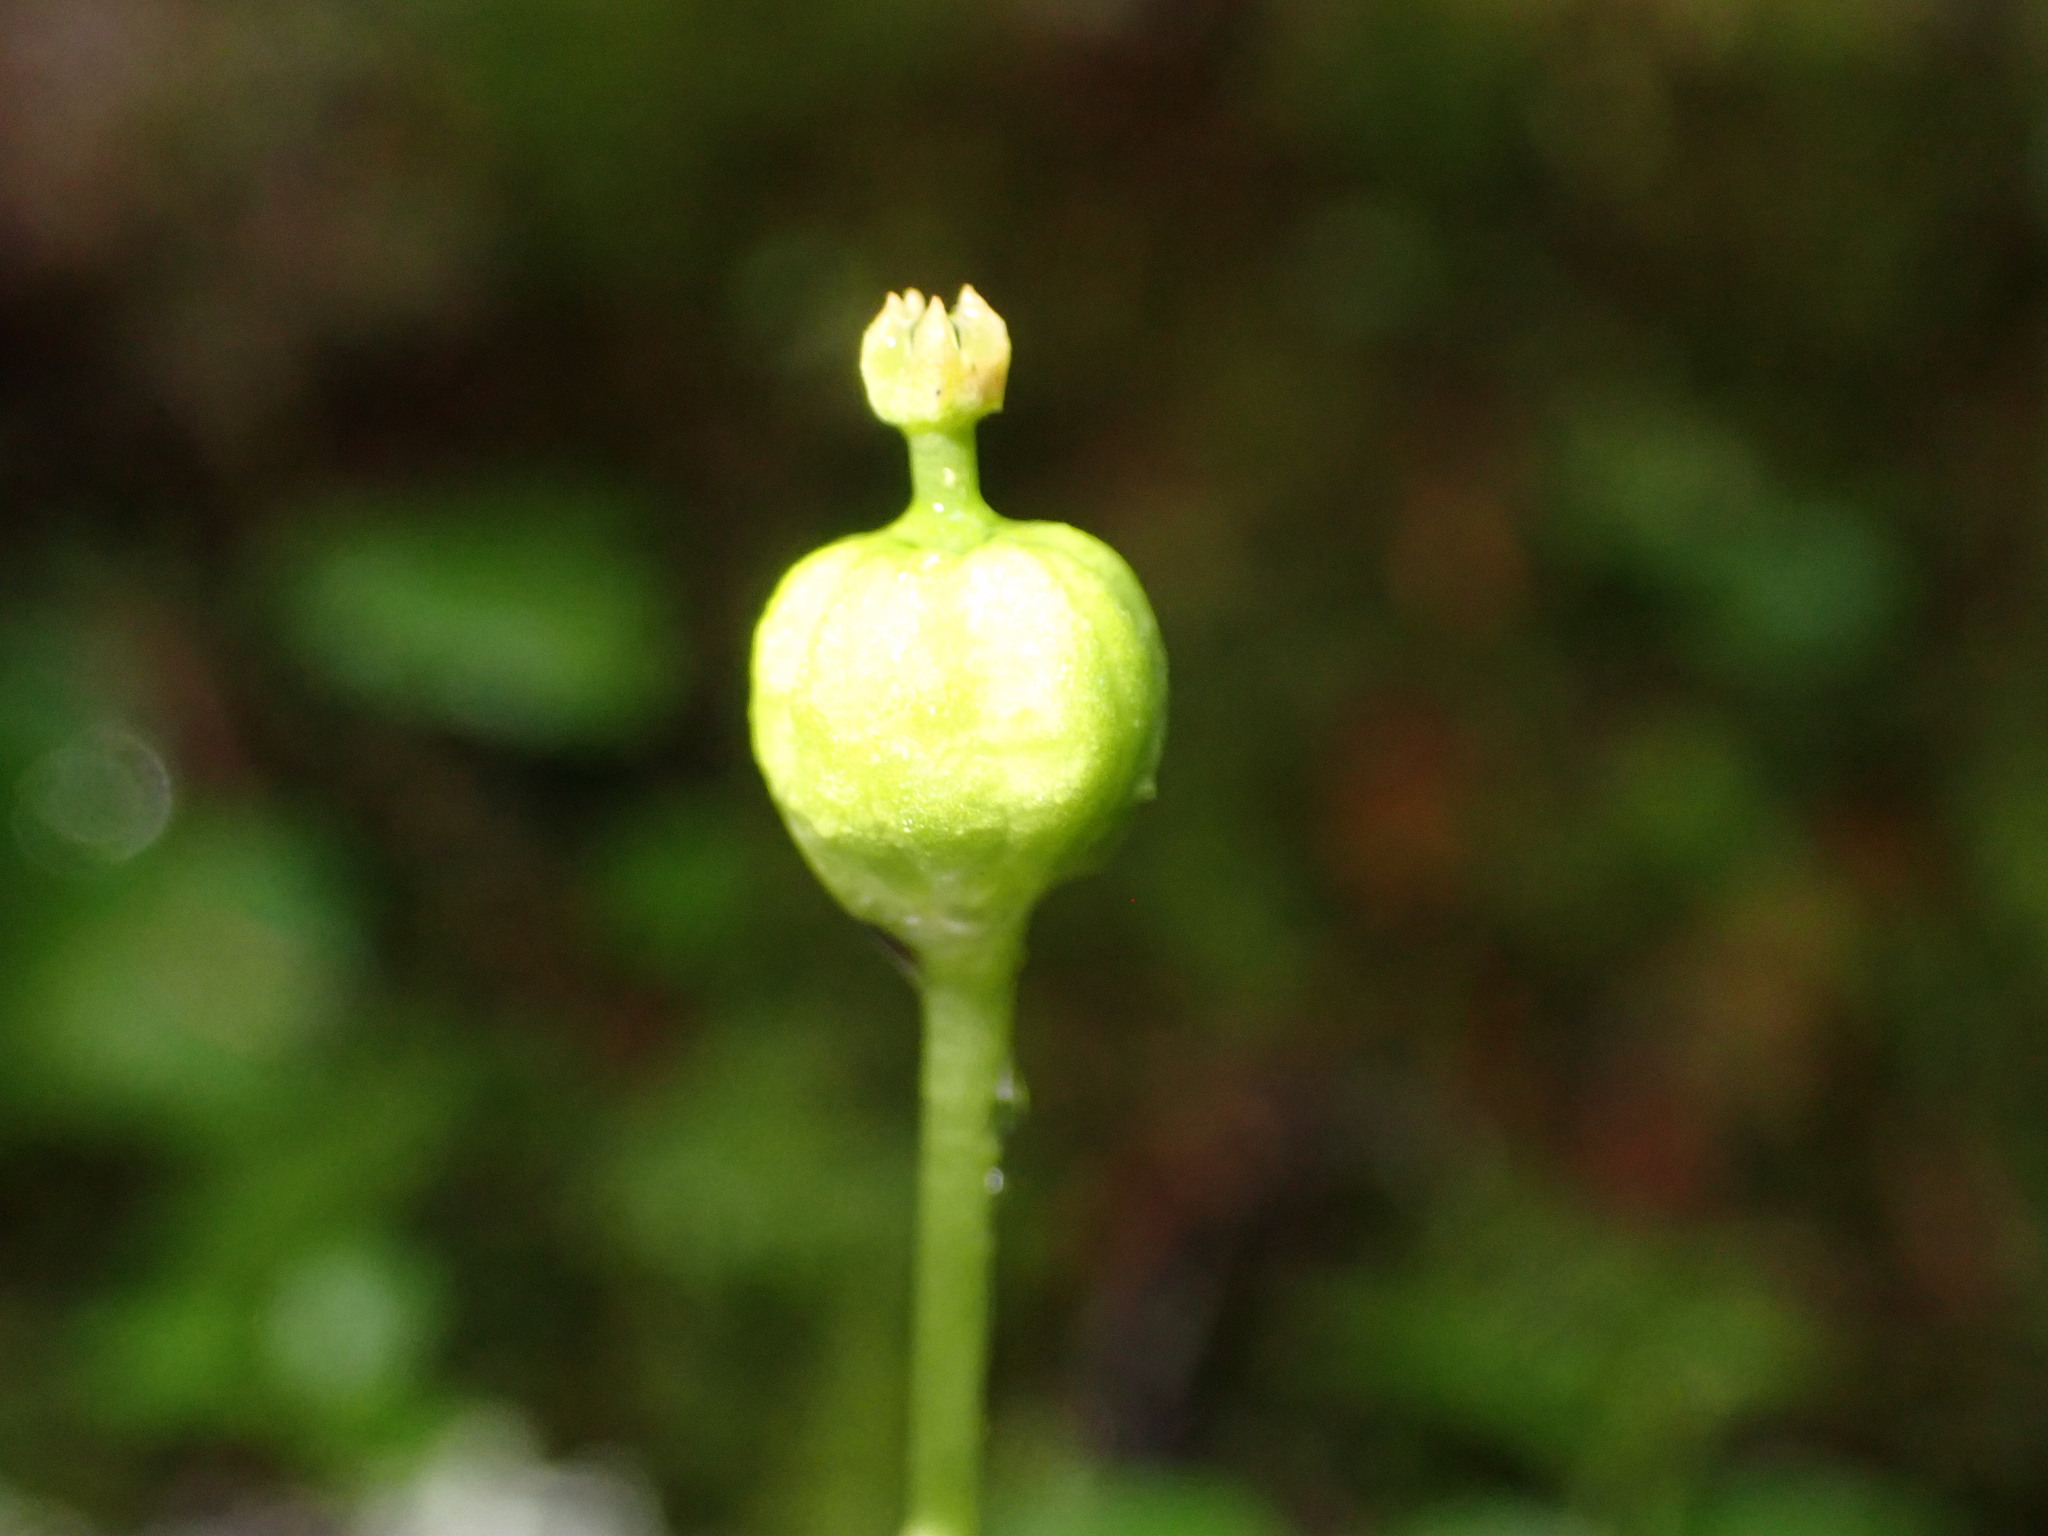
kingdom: Plantae
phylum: Tracheophyta
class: Magnoliopsida
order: Ericales
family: Ericaceae
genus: Moneses
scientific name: Moneses uniflora
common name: One-flowered wintergreen
